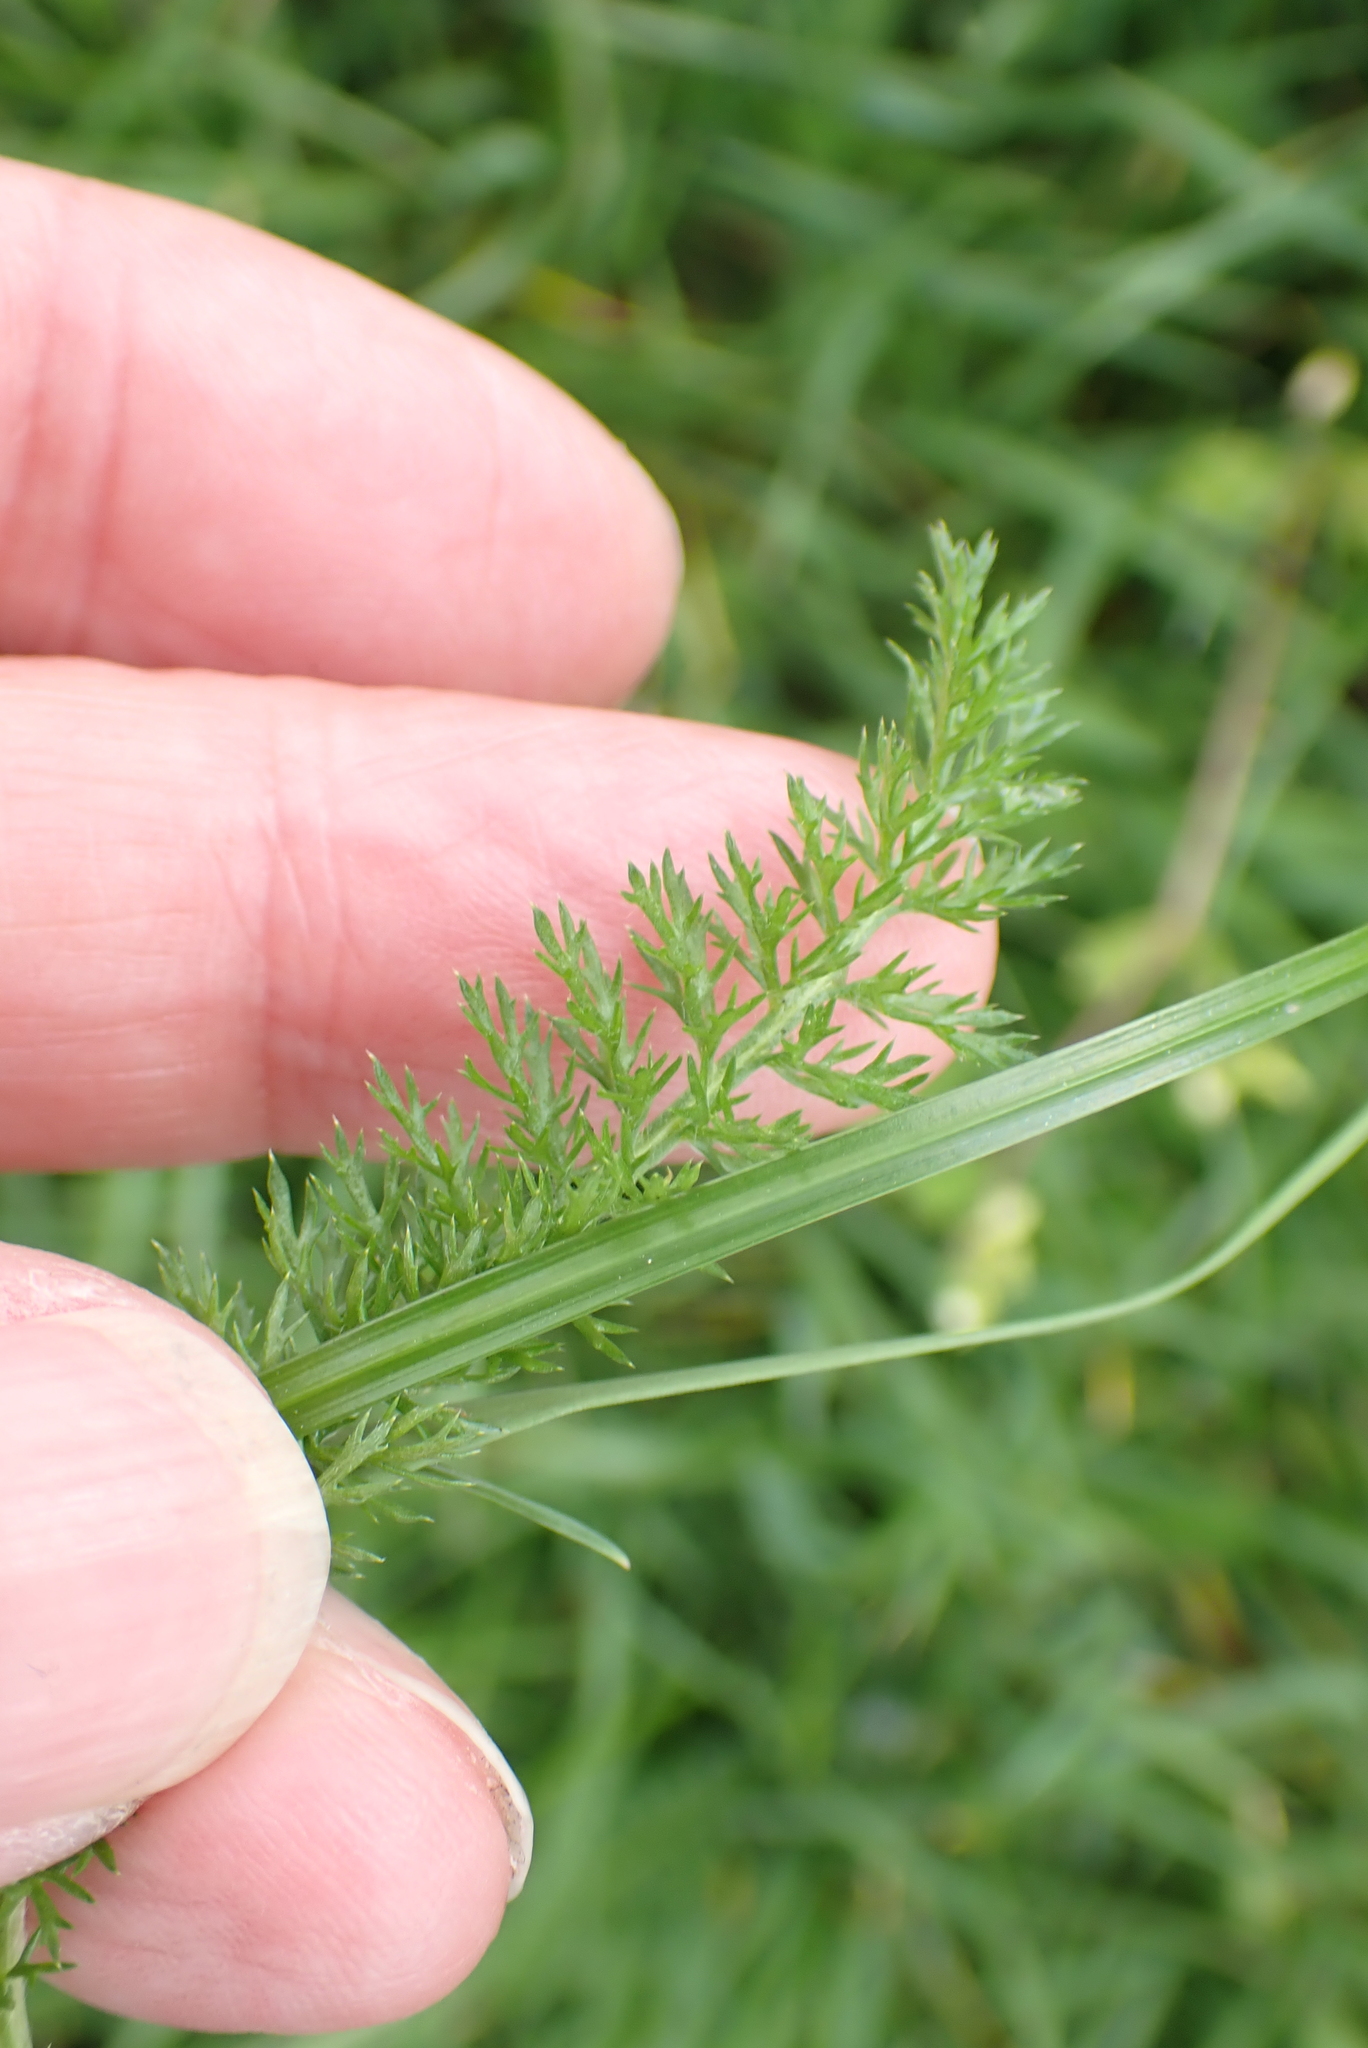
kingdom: Plantae
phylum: Tracheophyta
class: Magnoliopsida
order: Asterales
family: Asteraceae
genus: Achillea
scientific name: Achillea millefolium
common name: Yarrow
